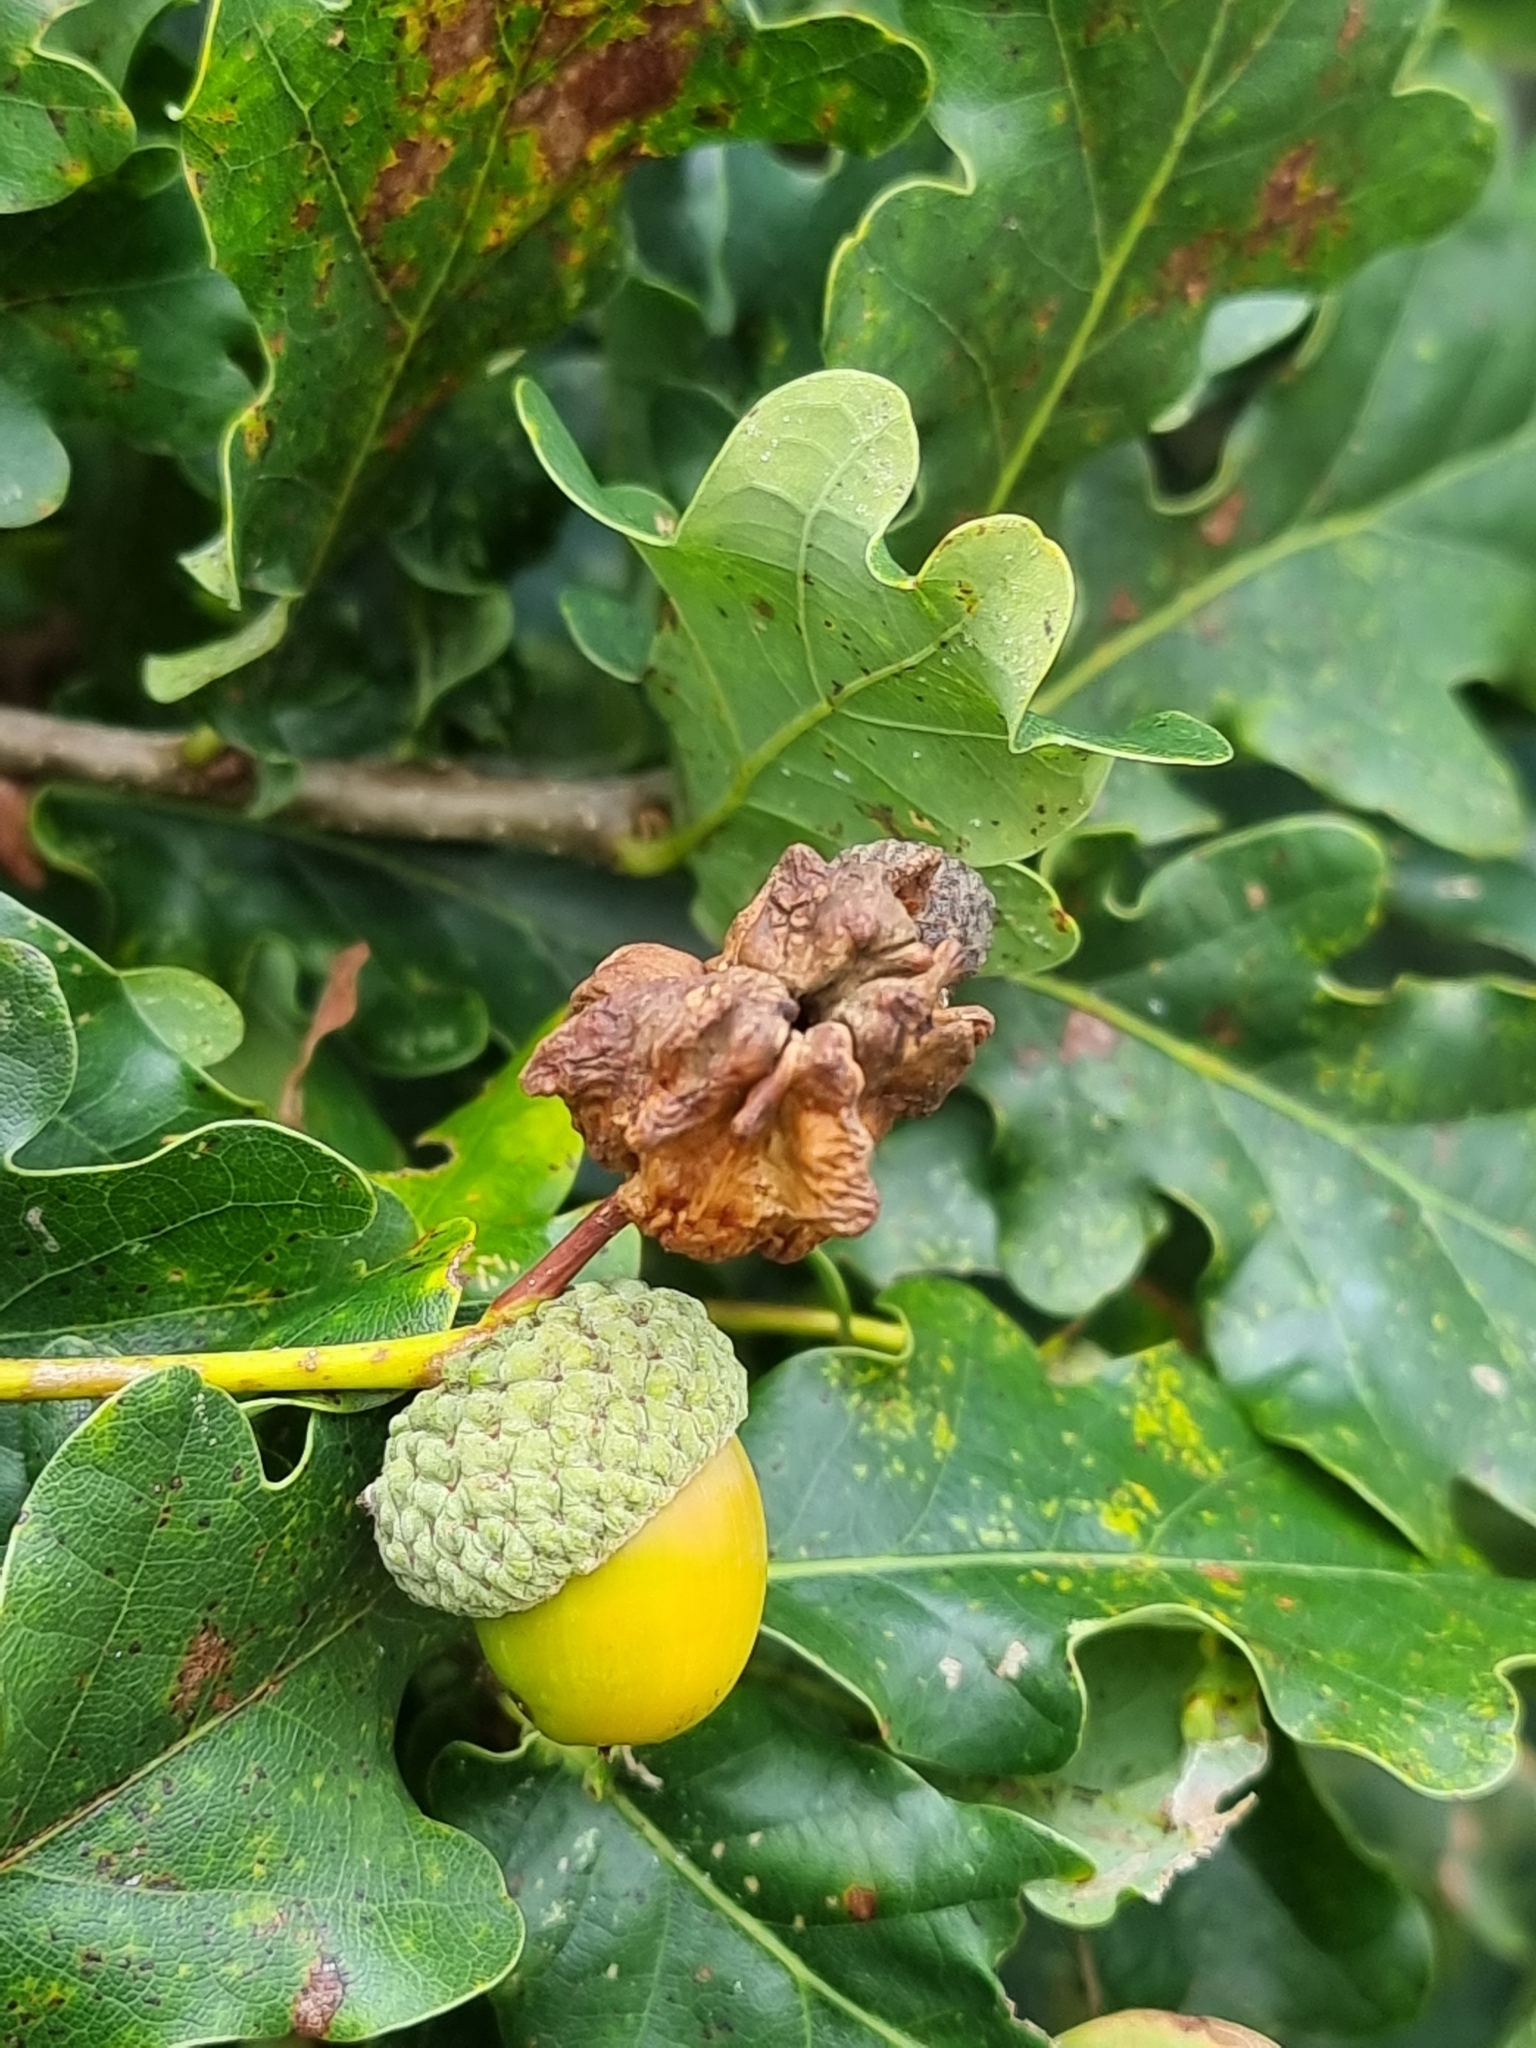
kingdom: Animalia
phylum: Arthropoda
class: Insecta
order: Hymenoptera
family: Cynipidae
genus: Andricus
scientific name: Andricus quercuscalicis
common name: Knopper gall
